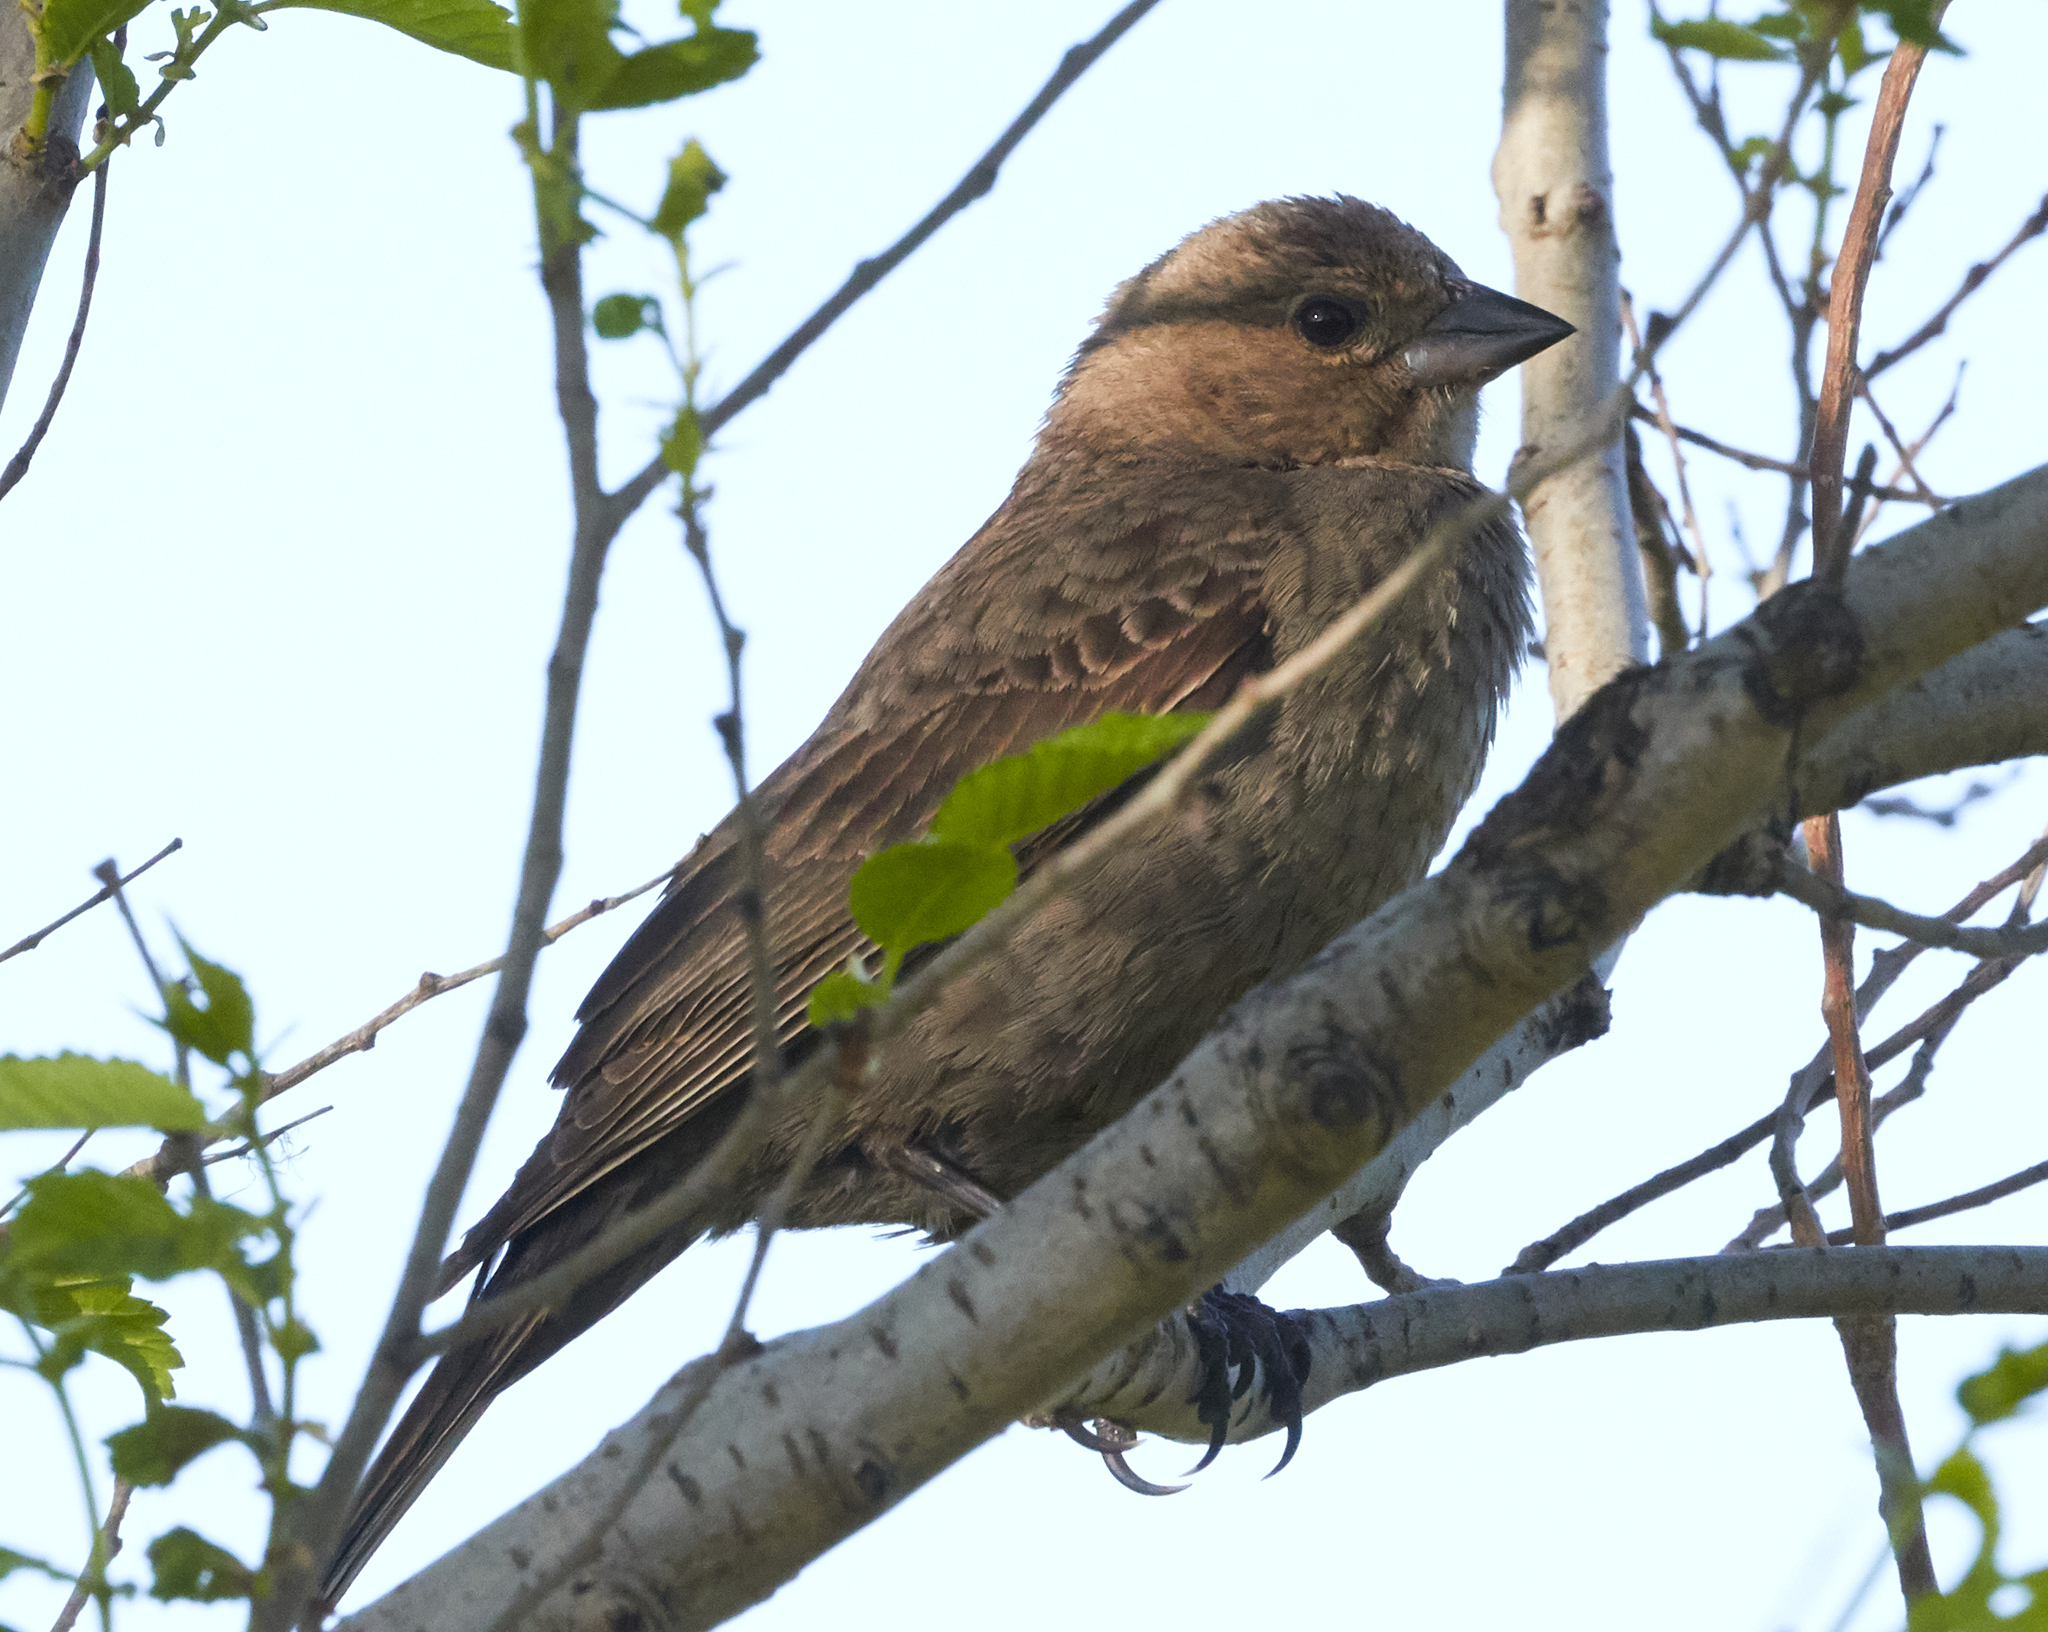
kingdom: Animalia
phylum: Chordata
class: Aves
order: Passeriformes
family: Icteridae
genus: Molothrus
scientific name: Molothrus ater
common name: Brown-headed cowbird
